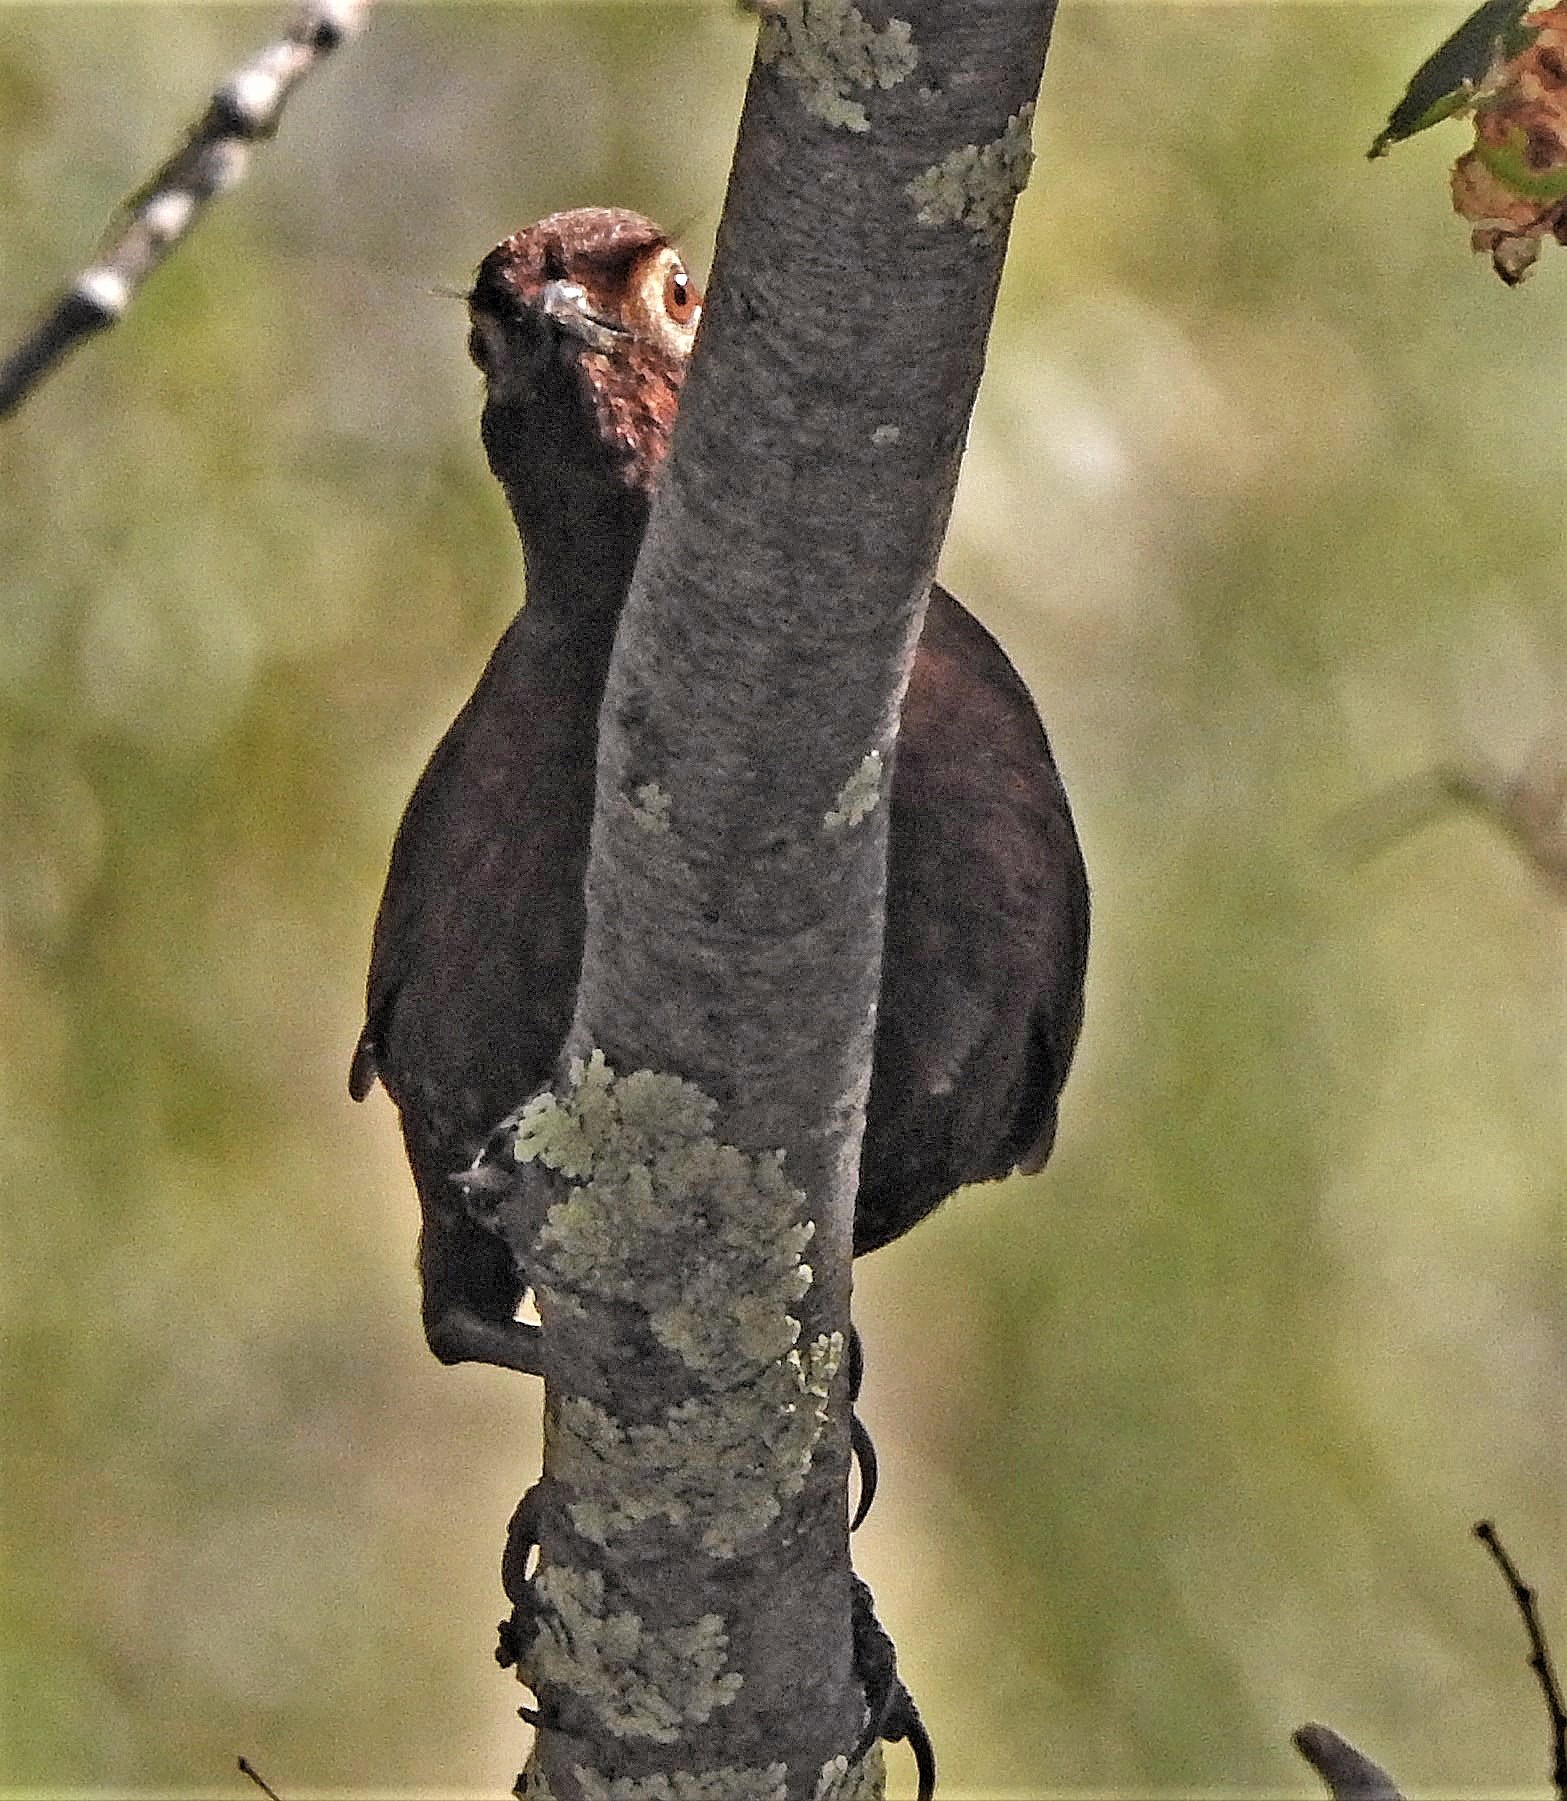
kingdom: Animalia
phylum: Chordata
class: Aves
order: Passeriformes
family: Rhinocryptidae
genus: Pteroptochos
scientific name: Pteroptochos castaneus
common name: Chestnut-throated huet-huet
